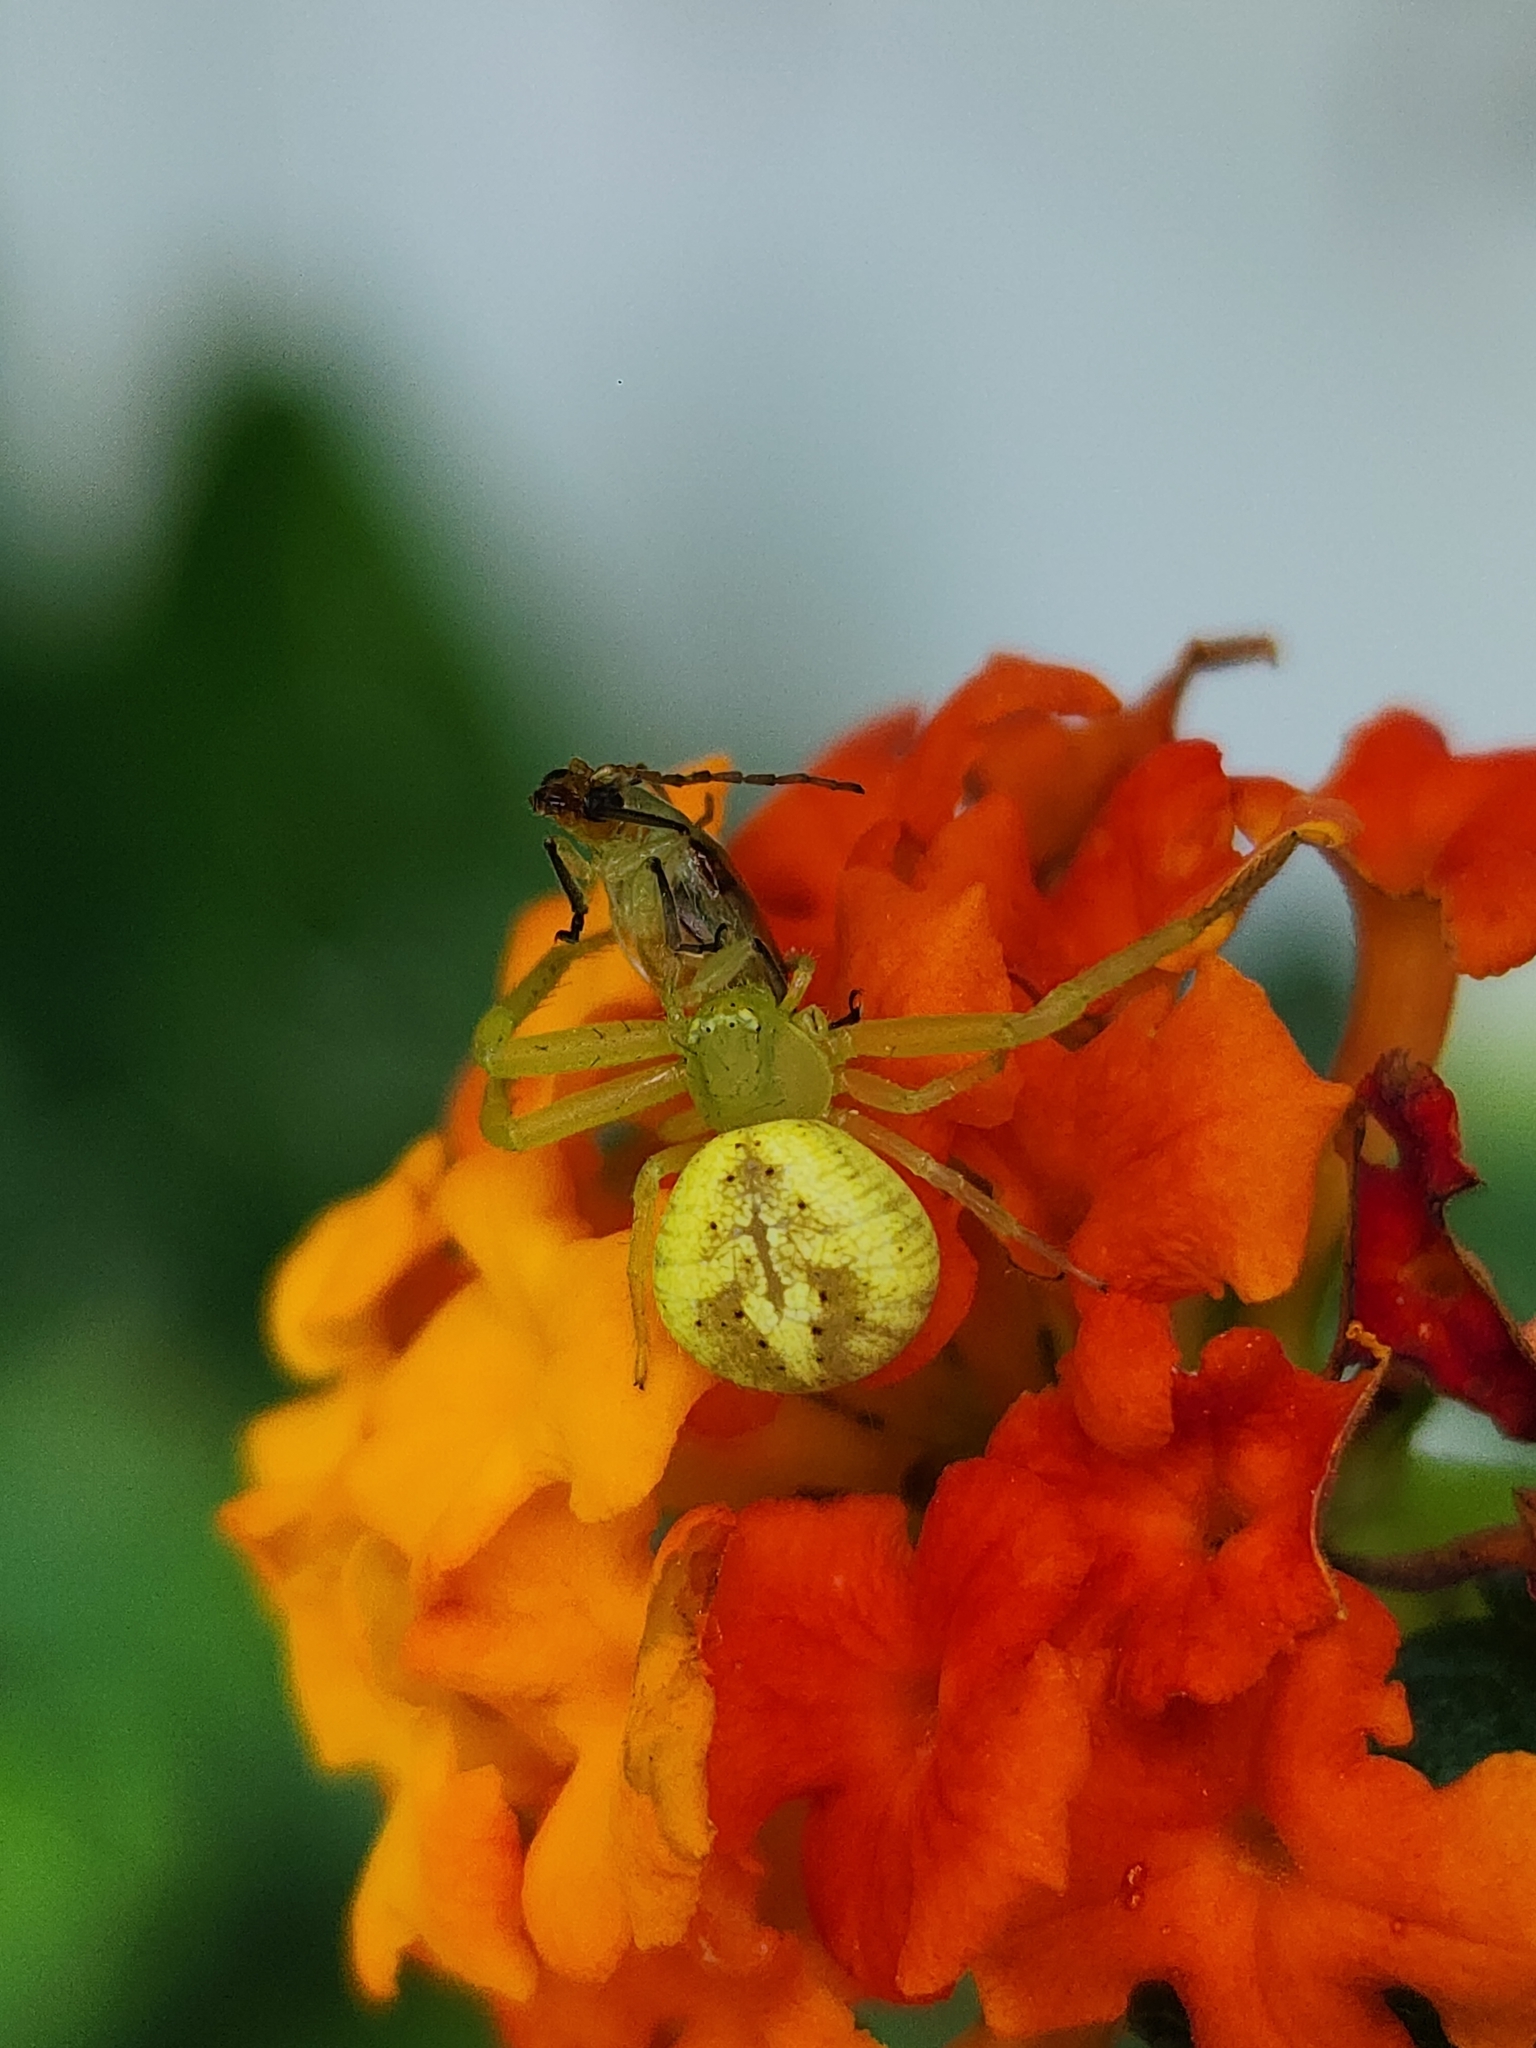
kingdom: Animalia
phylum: Arthropoda
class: Arachnida
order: Araneae
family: Thomisidae
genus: Misumenops
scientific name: Misumenops
